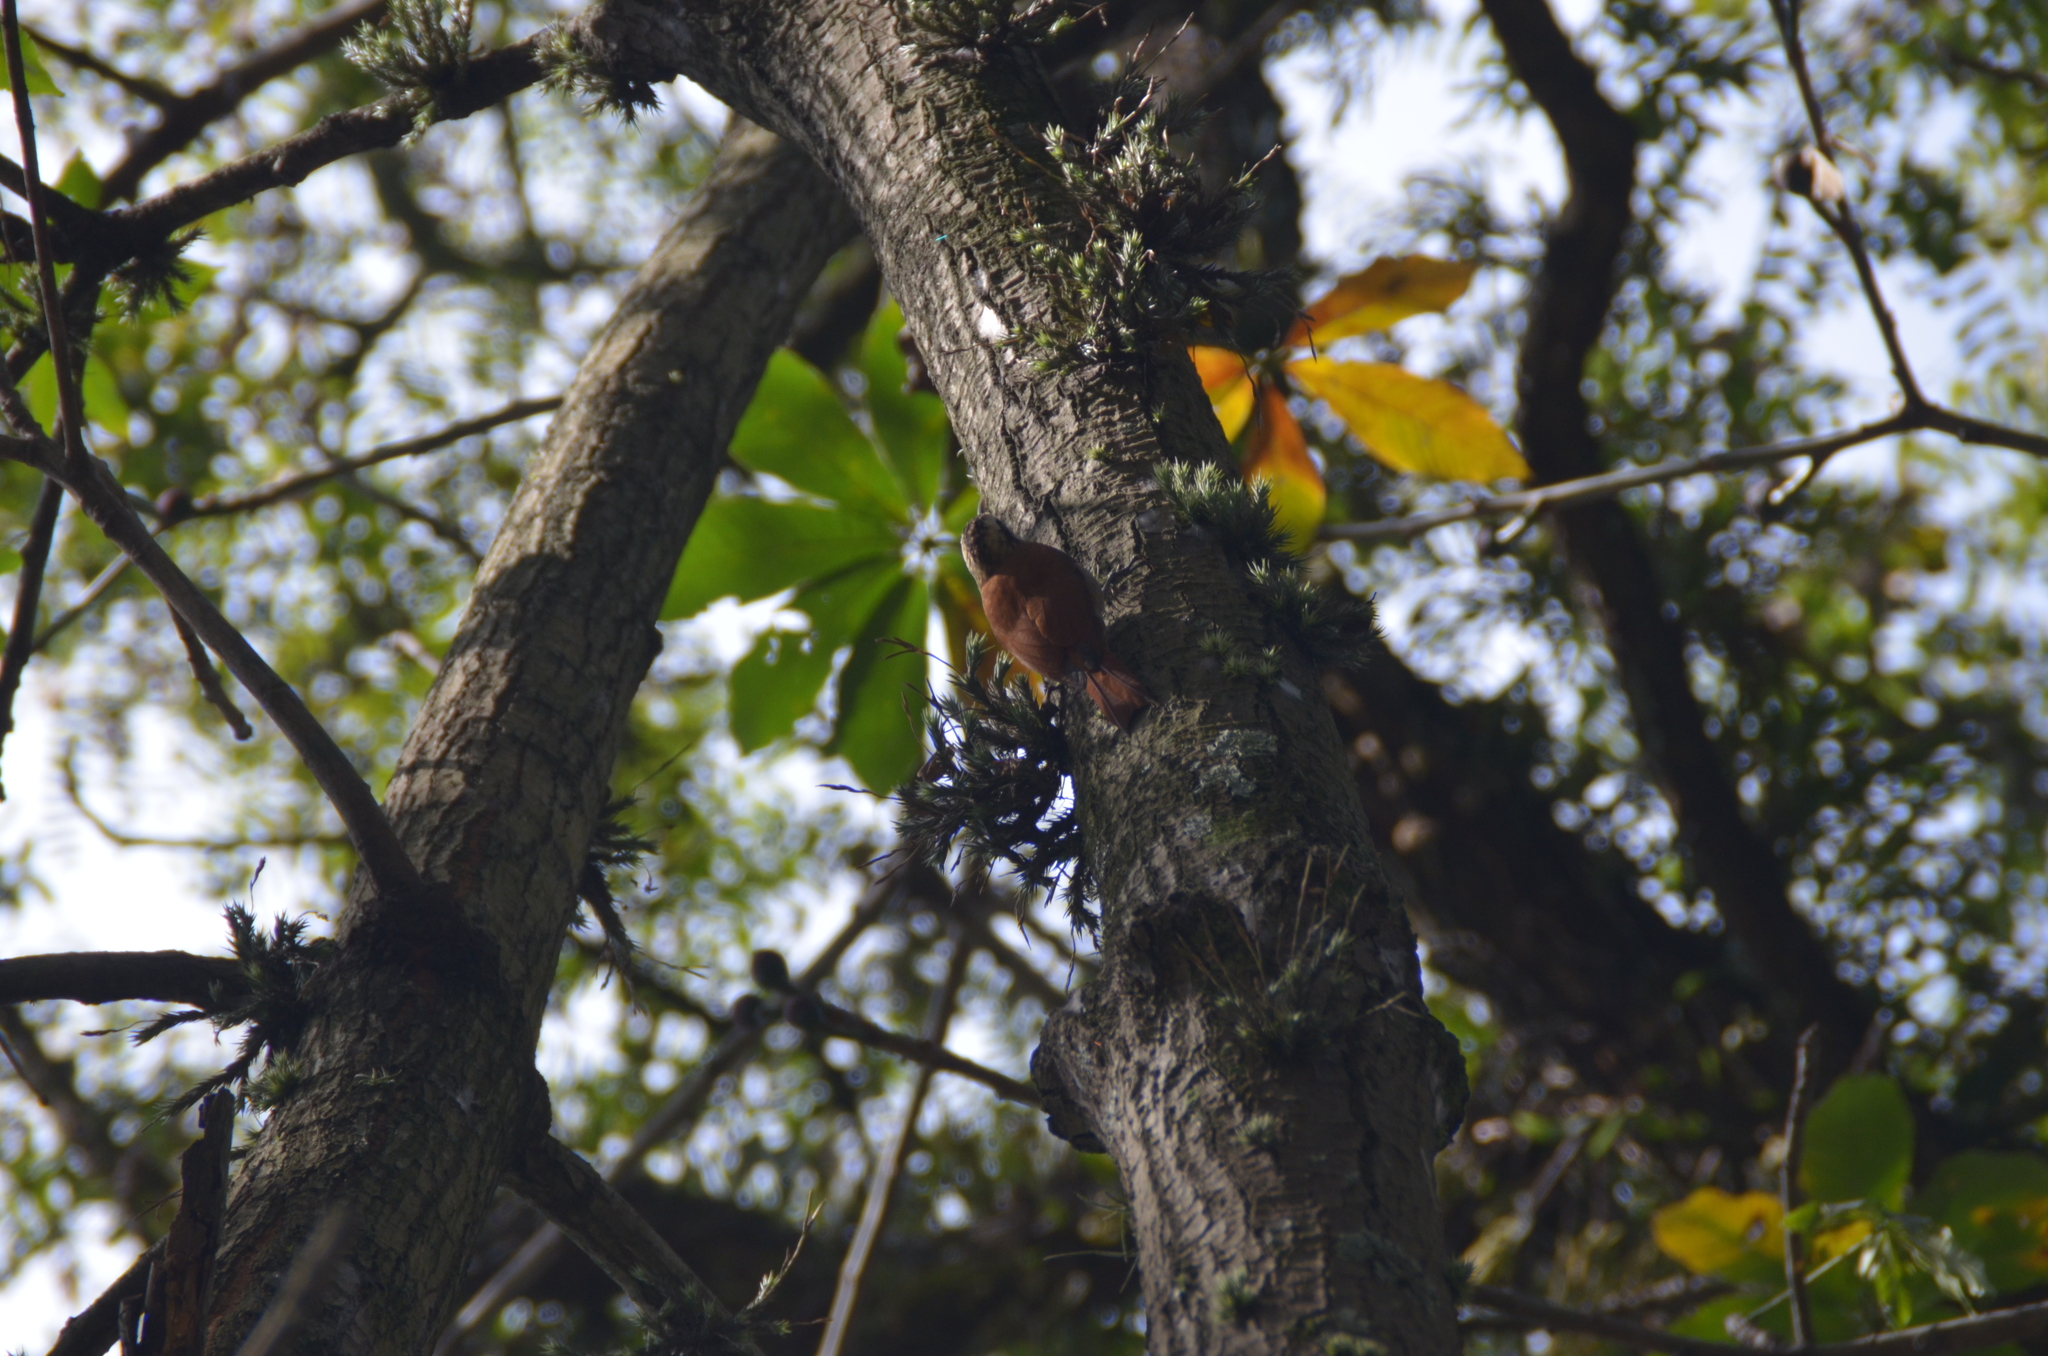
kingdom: Animalia
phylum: Chordata
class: Aves
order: Passeriformes
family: Furnariidae
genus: Lepidocolaptes
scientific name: Lepidocolaptes angustirostris
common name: Narrow-billed woodcreeper
